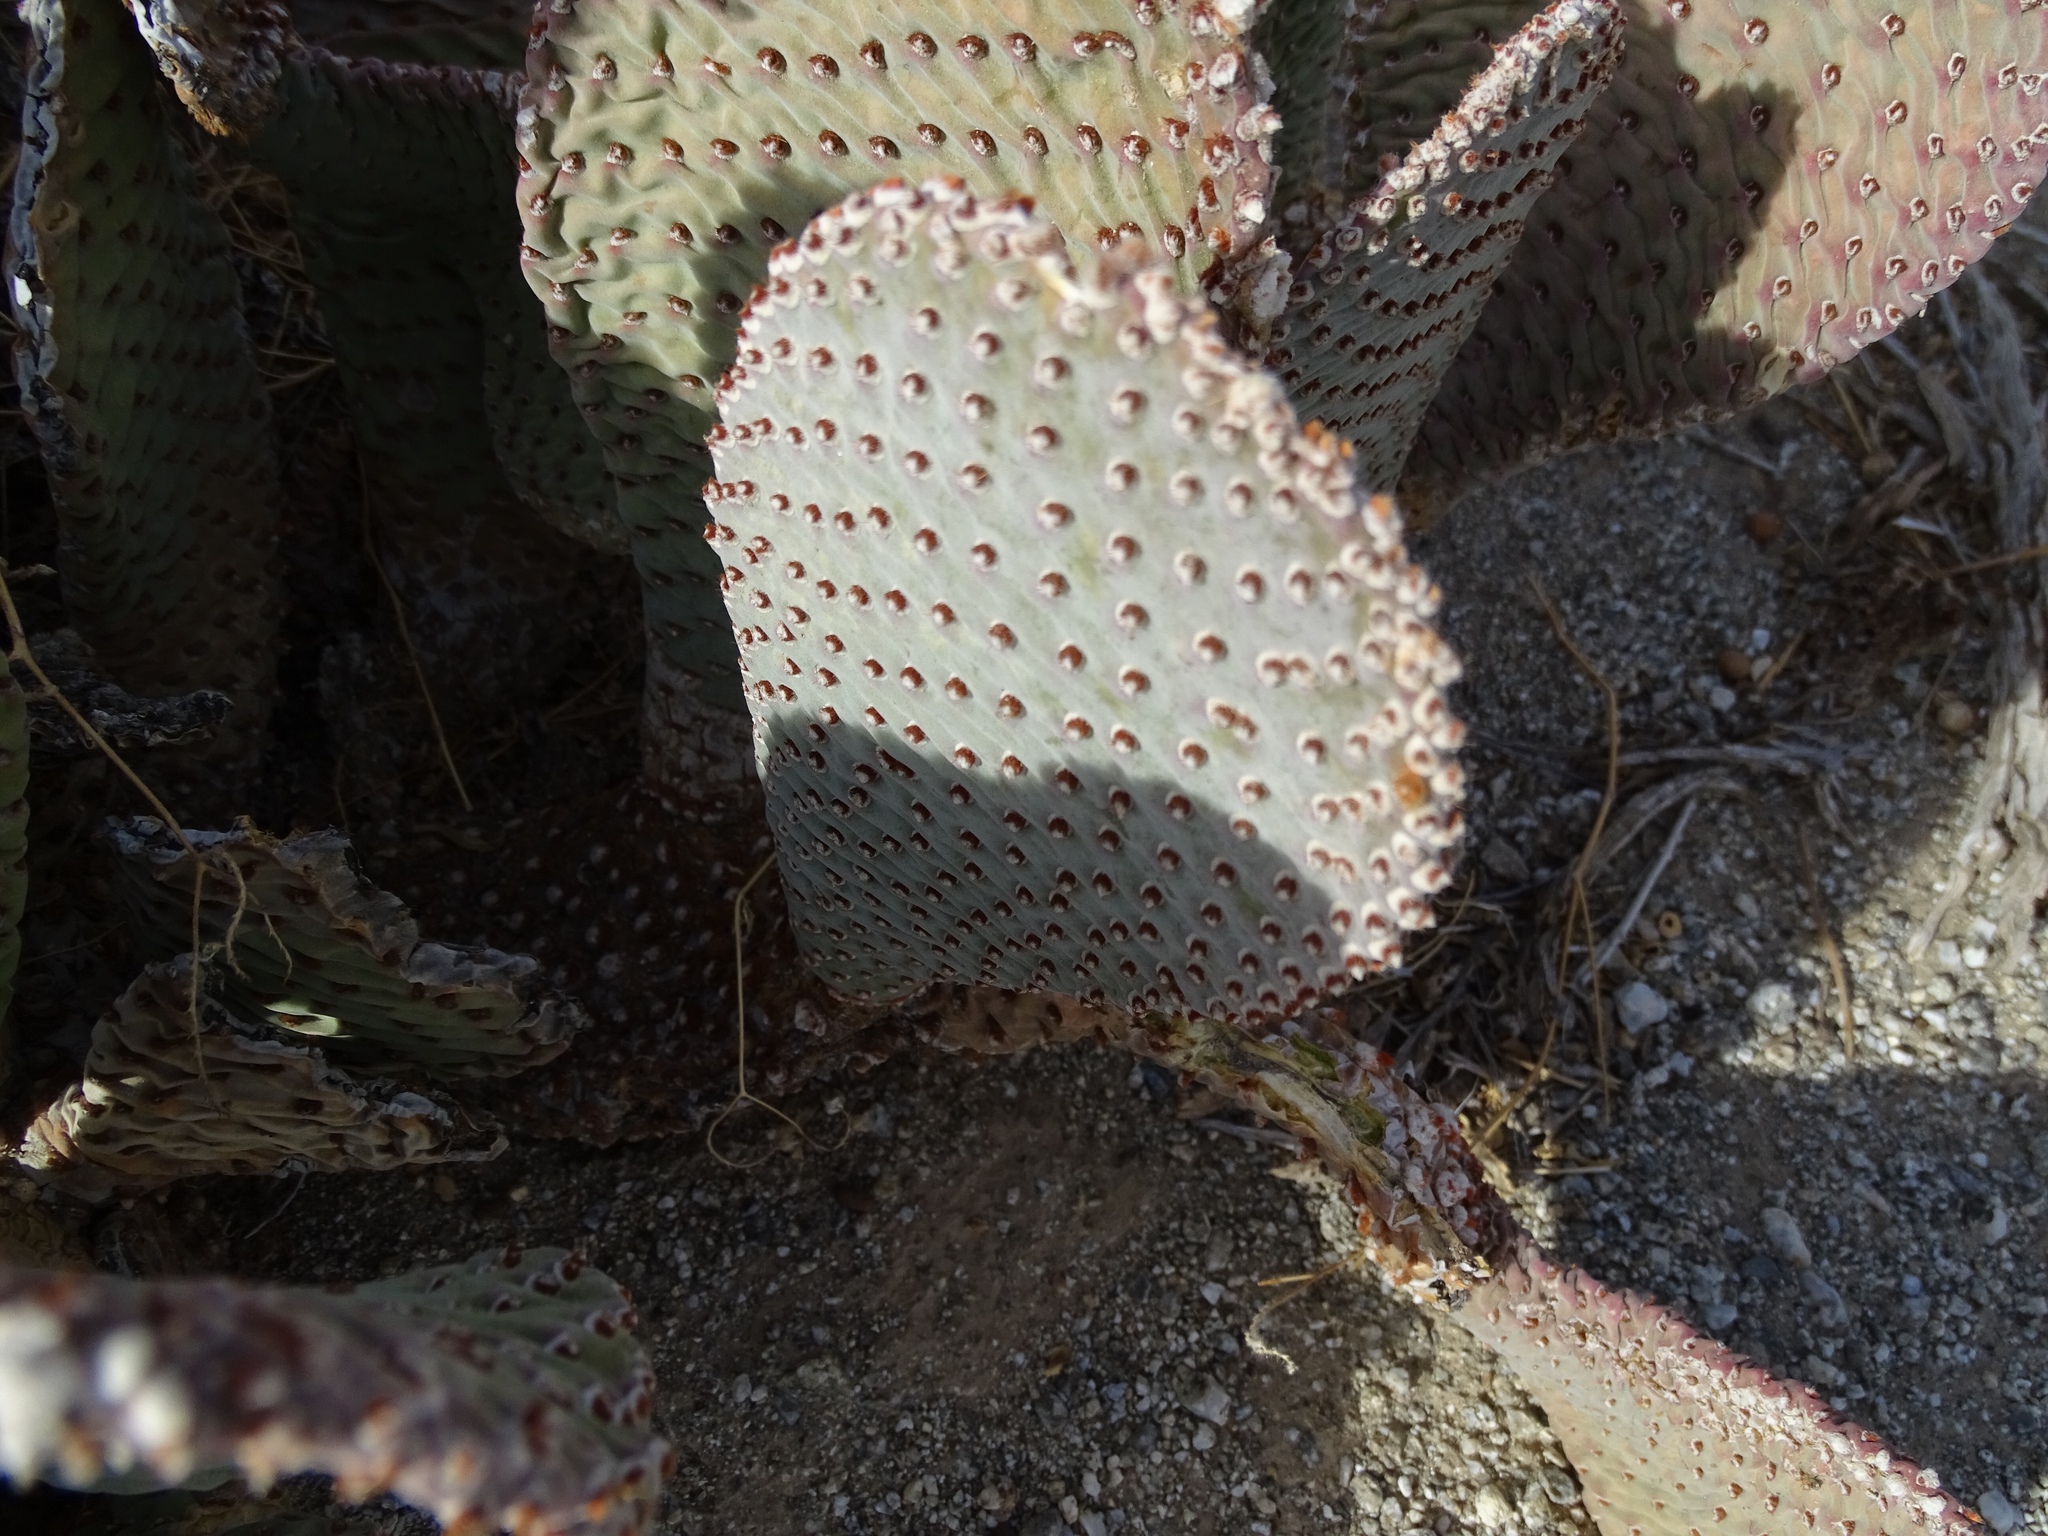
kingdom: Plantae
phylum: Tracheophyta
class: Magnoliopsida
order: Caryophyllales
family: Cactaceae
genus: Opuntia
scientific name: Opuntia basilaris
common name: Beavertail prickly-pear
